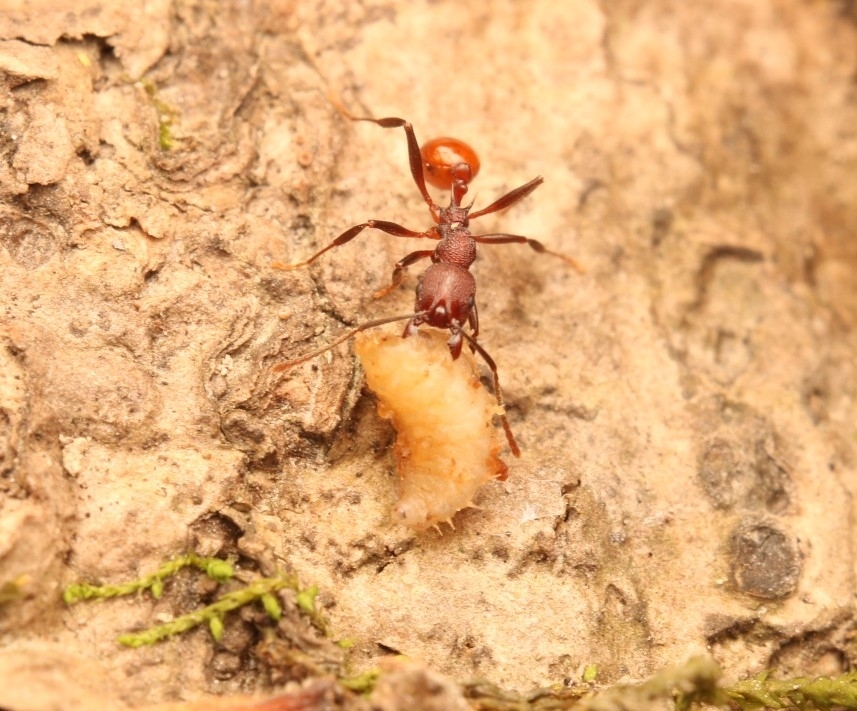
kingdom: Animalia
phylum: Arthropoda
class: Insecta
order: Hymenoptera
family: Formicidae
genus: Aphaenogaster
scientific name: Aphaenogaster tennesseensis
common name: Tennessee thread-waisted ant
